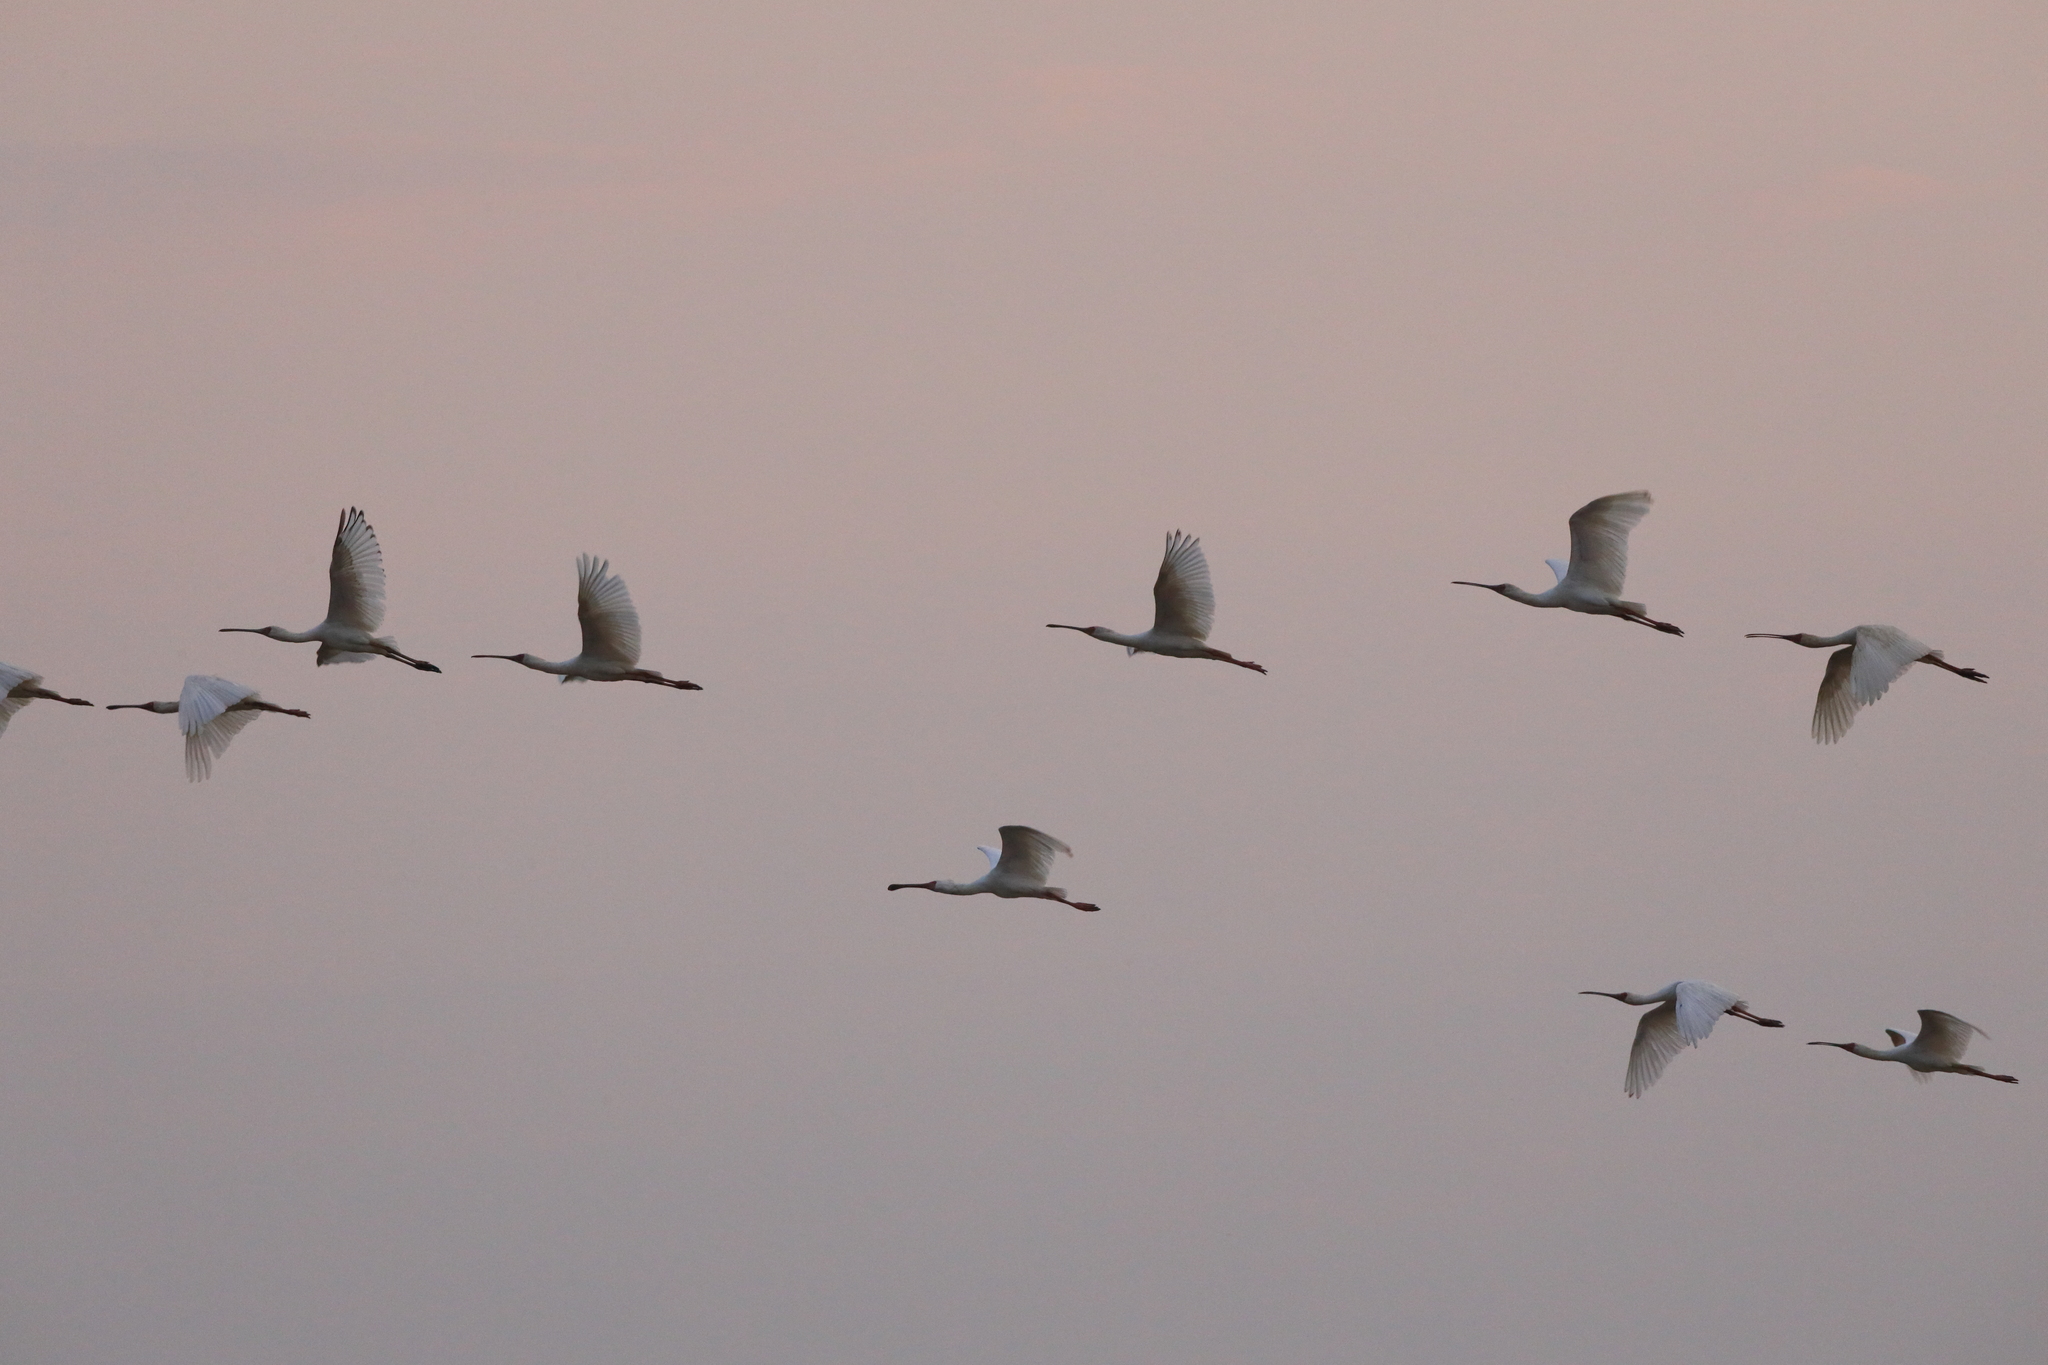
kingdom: Animalia
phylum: Chordata
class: Aves
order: Pelecaniformes
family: Threskiornithidae
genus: Platalea
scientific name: Platalea alba
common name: African spoonbill
